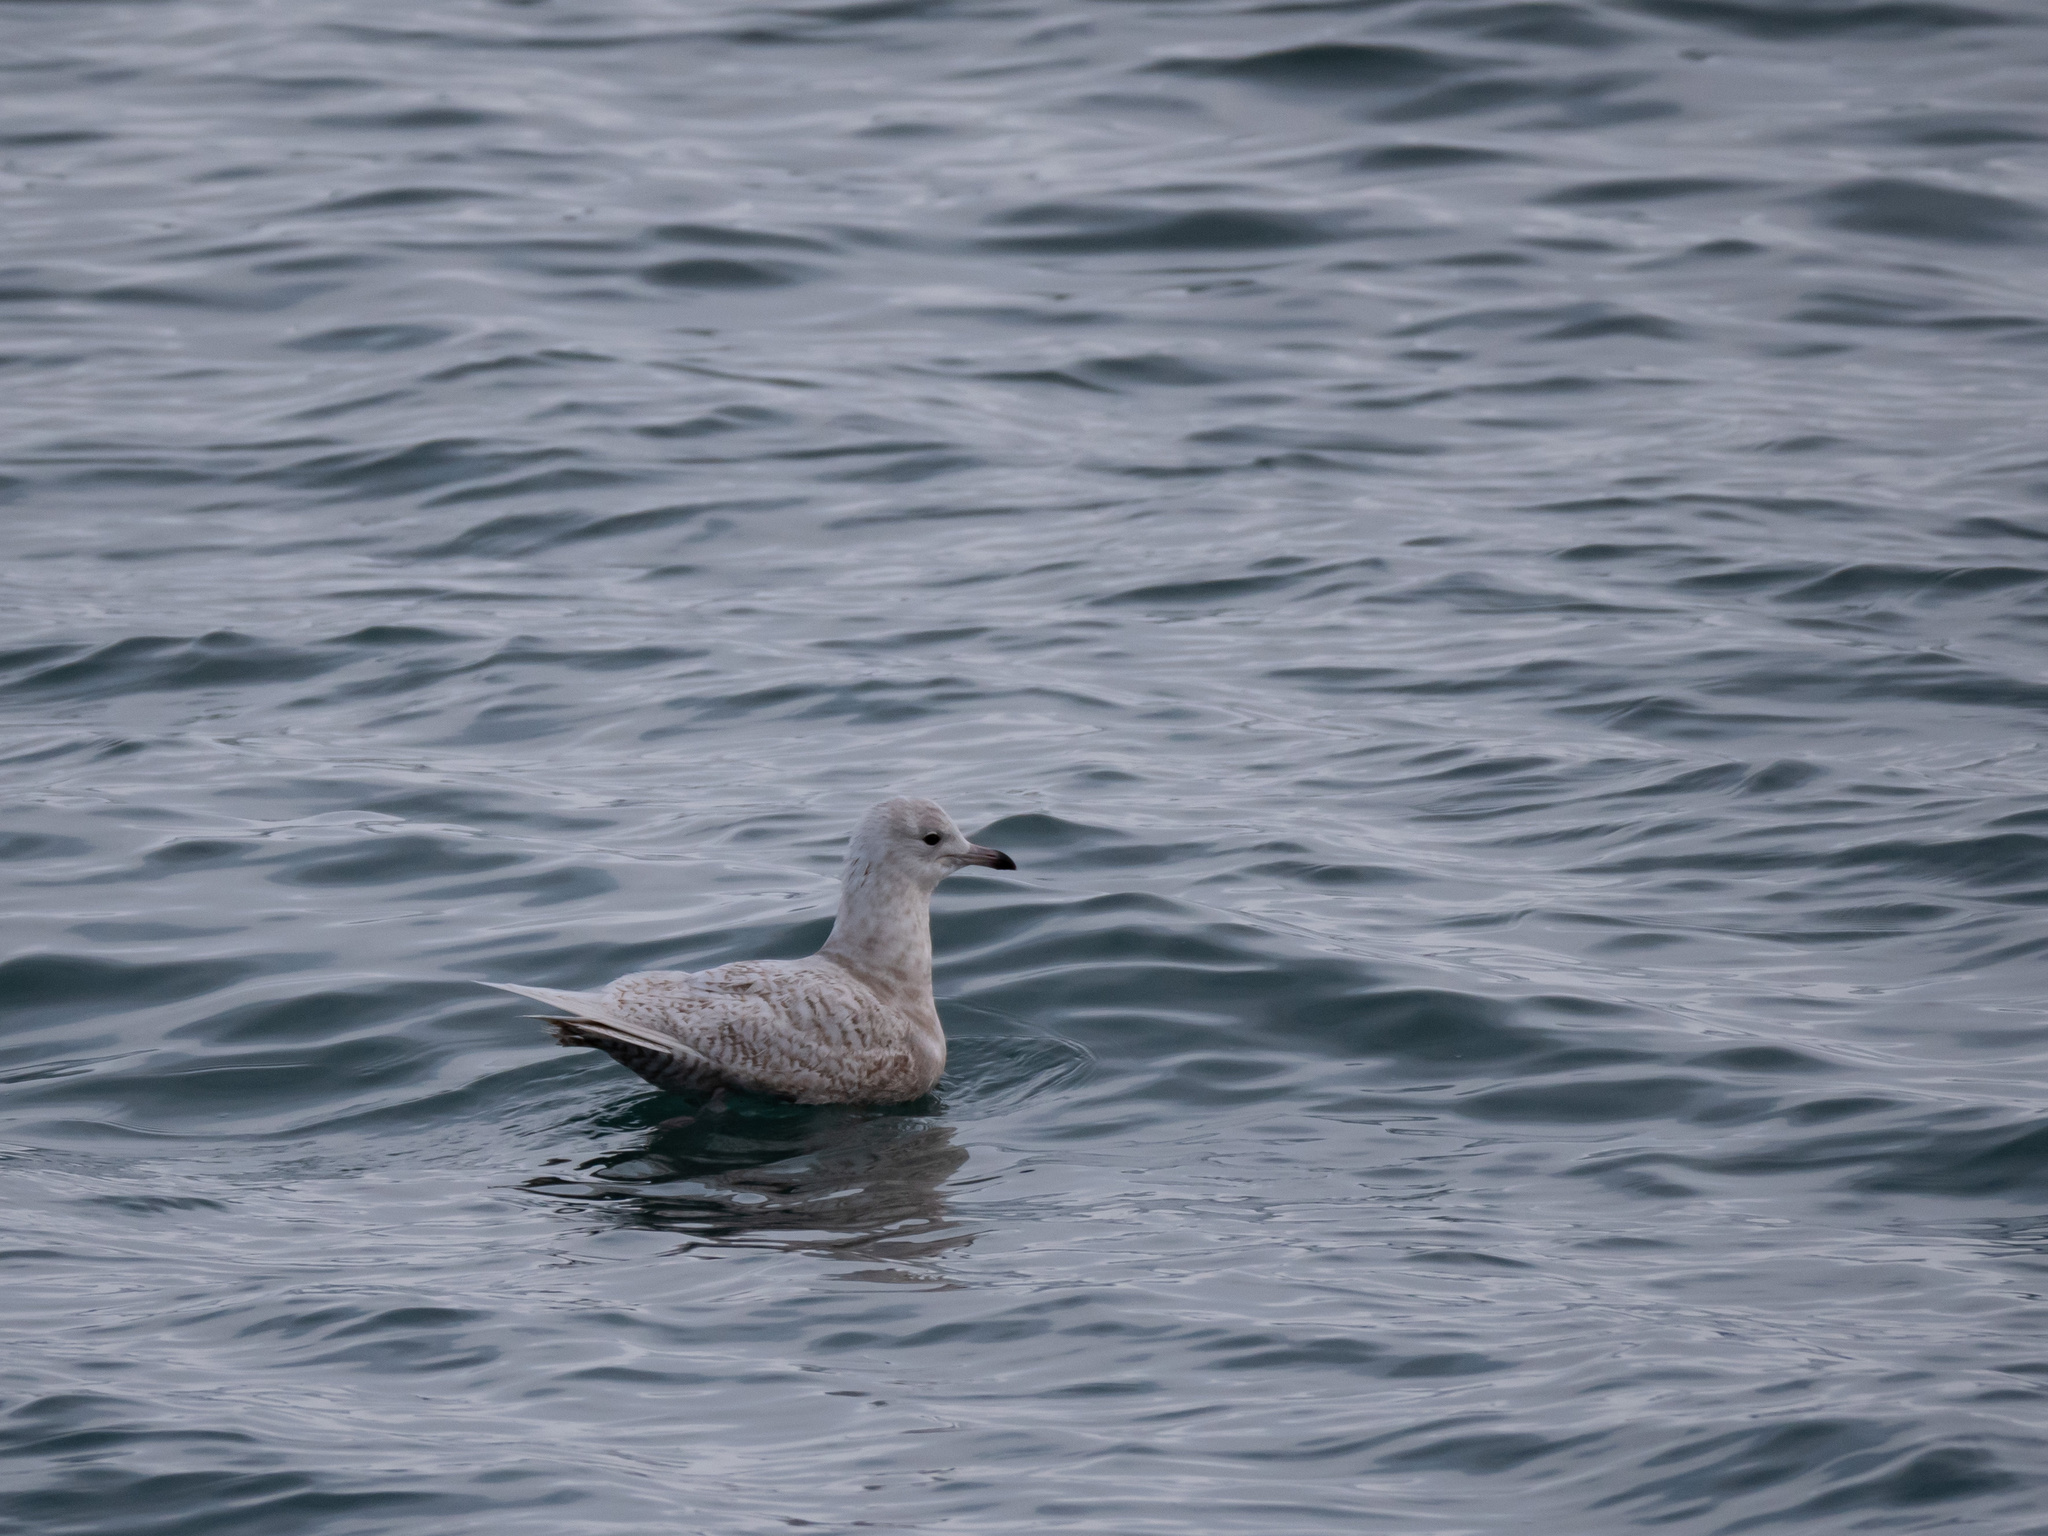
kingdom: Animalia
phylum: Chordata
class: Aves
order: Charadriiformes
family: Laridae
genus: Larus
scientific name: Larus glaucoides
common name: Iceland gull
